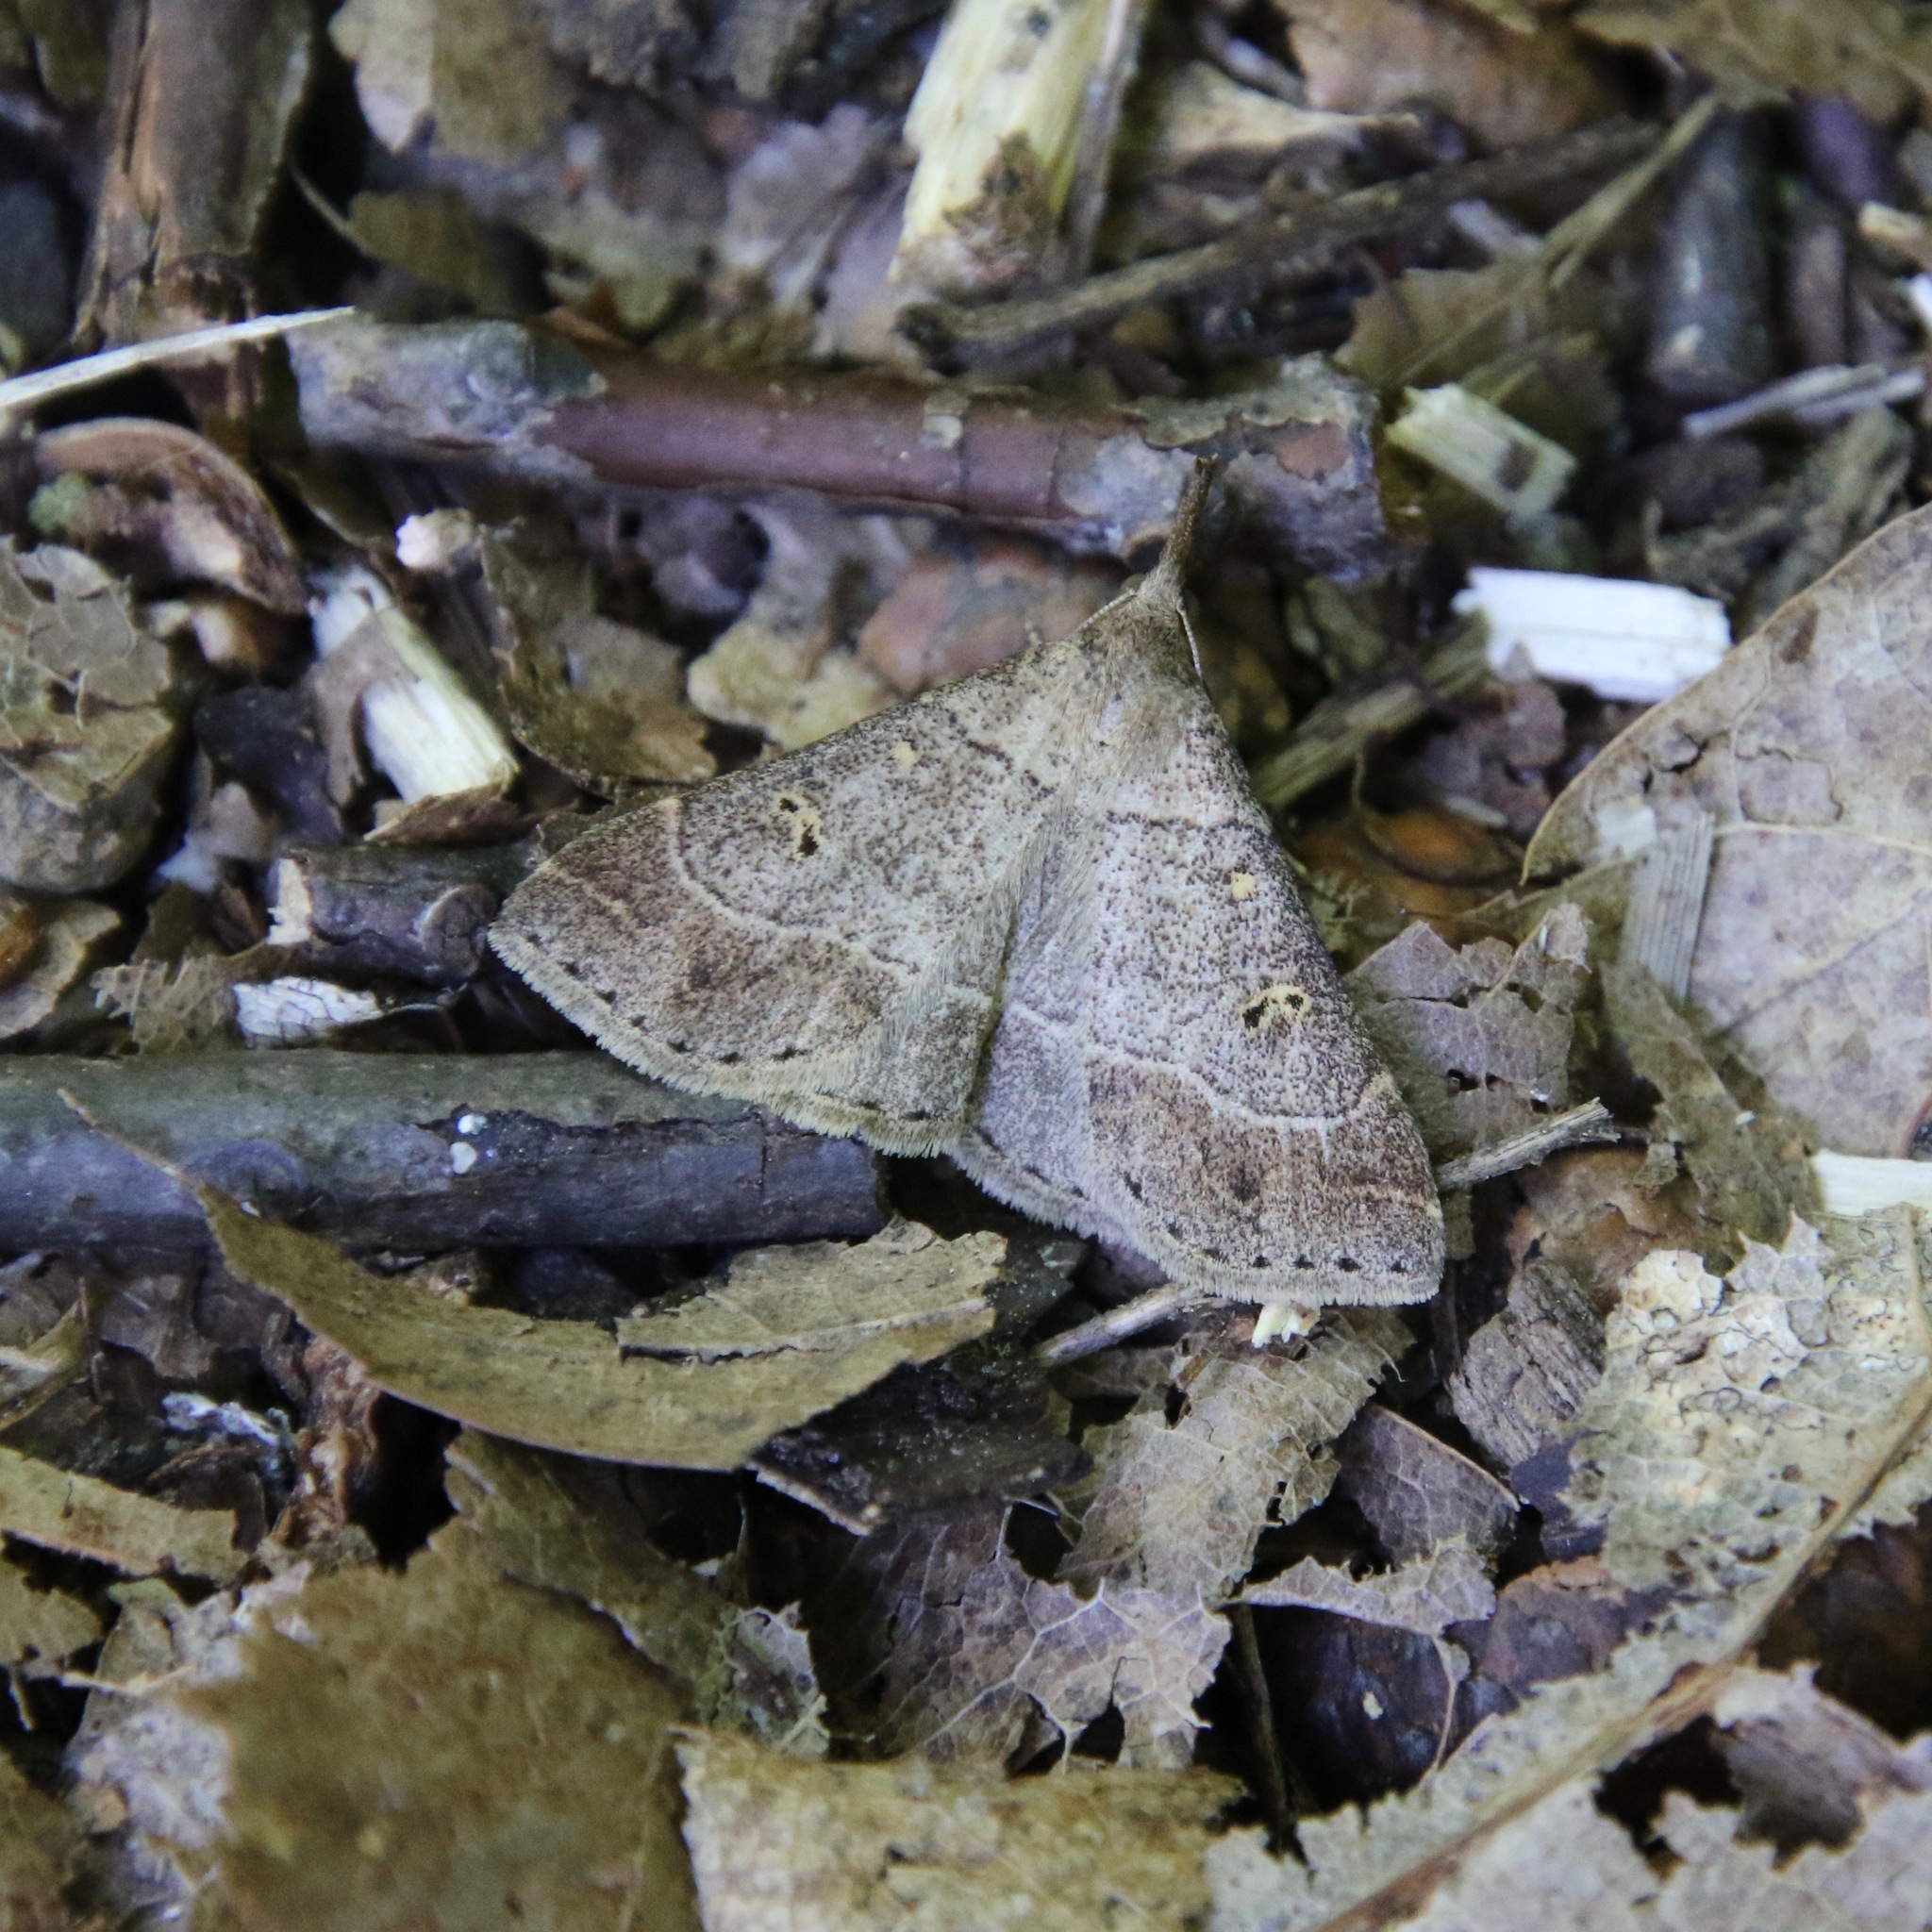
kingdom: Animalia
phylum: Arthropoda
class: Insecta
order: Lepidoptera
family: Erebidae
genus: Renia
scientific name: Renia flavipunctalis
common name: Yellow-spotted renia moth
